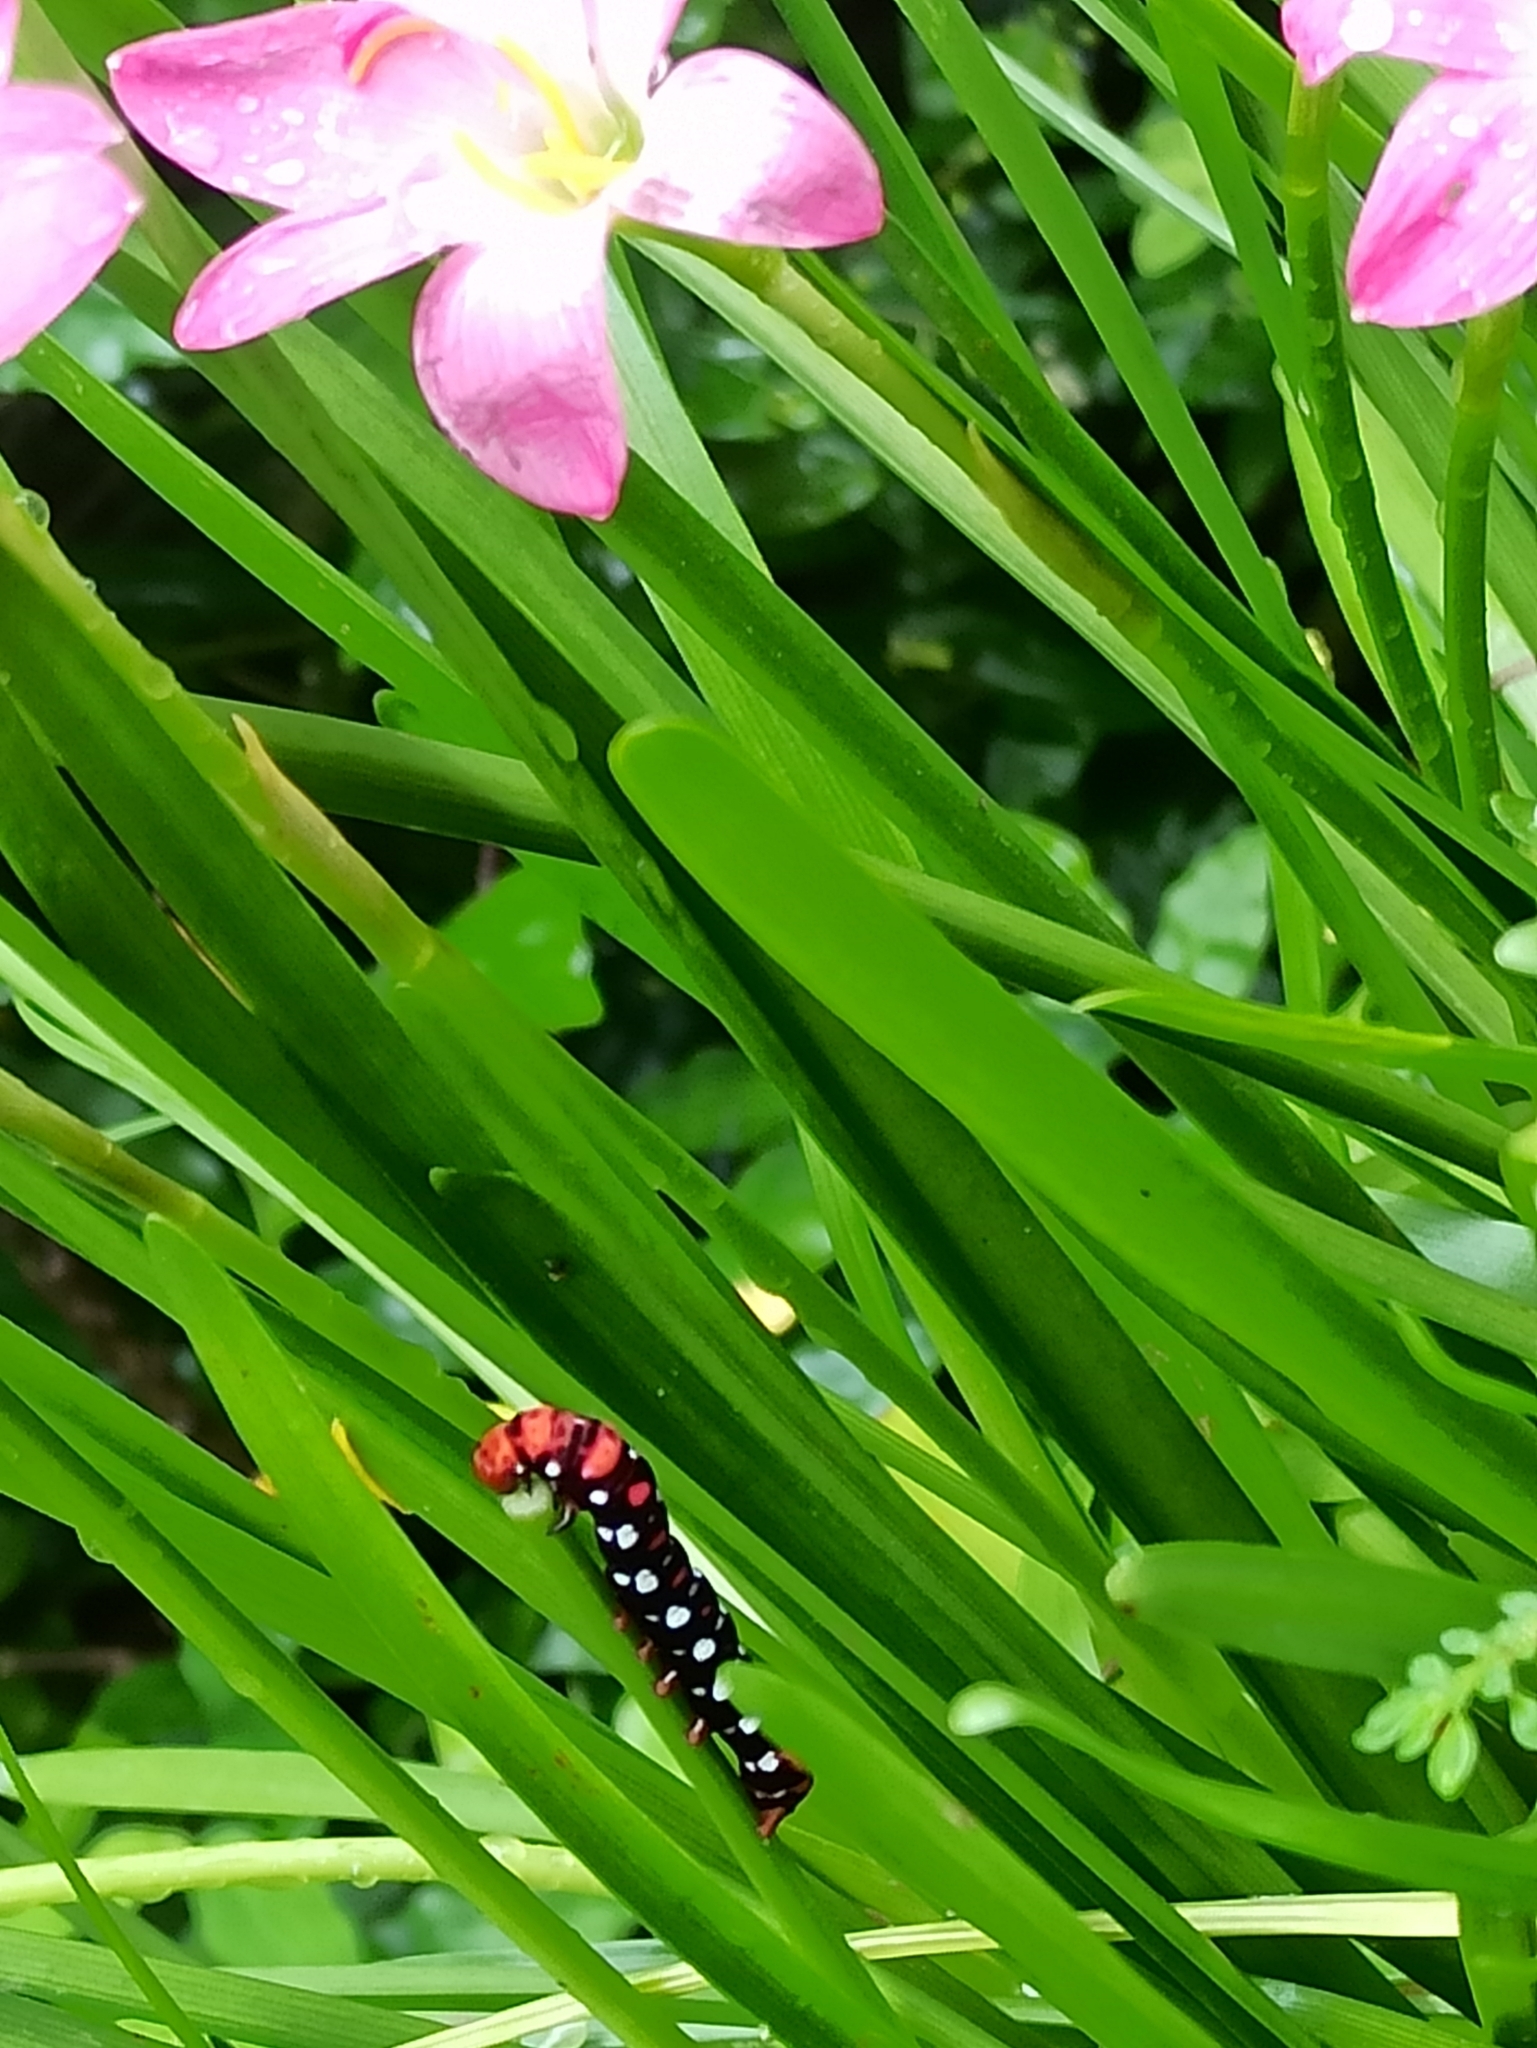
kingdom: Animalia
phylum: Arthropoda
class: Insecta
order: Lepidoptera
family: Noctuidae
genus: Polytela
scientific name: Polytela gloriosae
